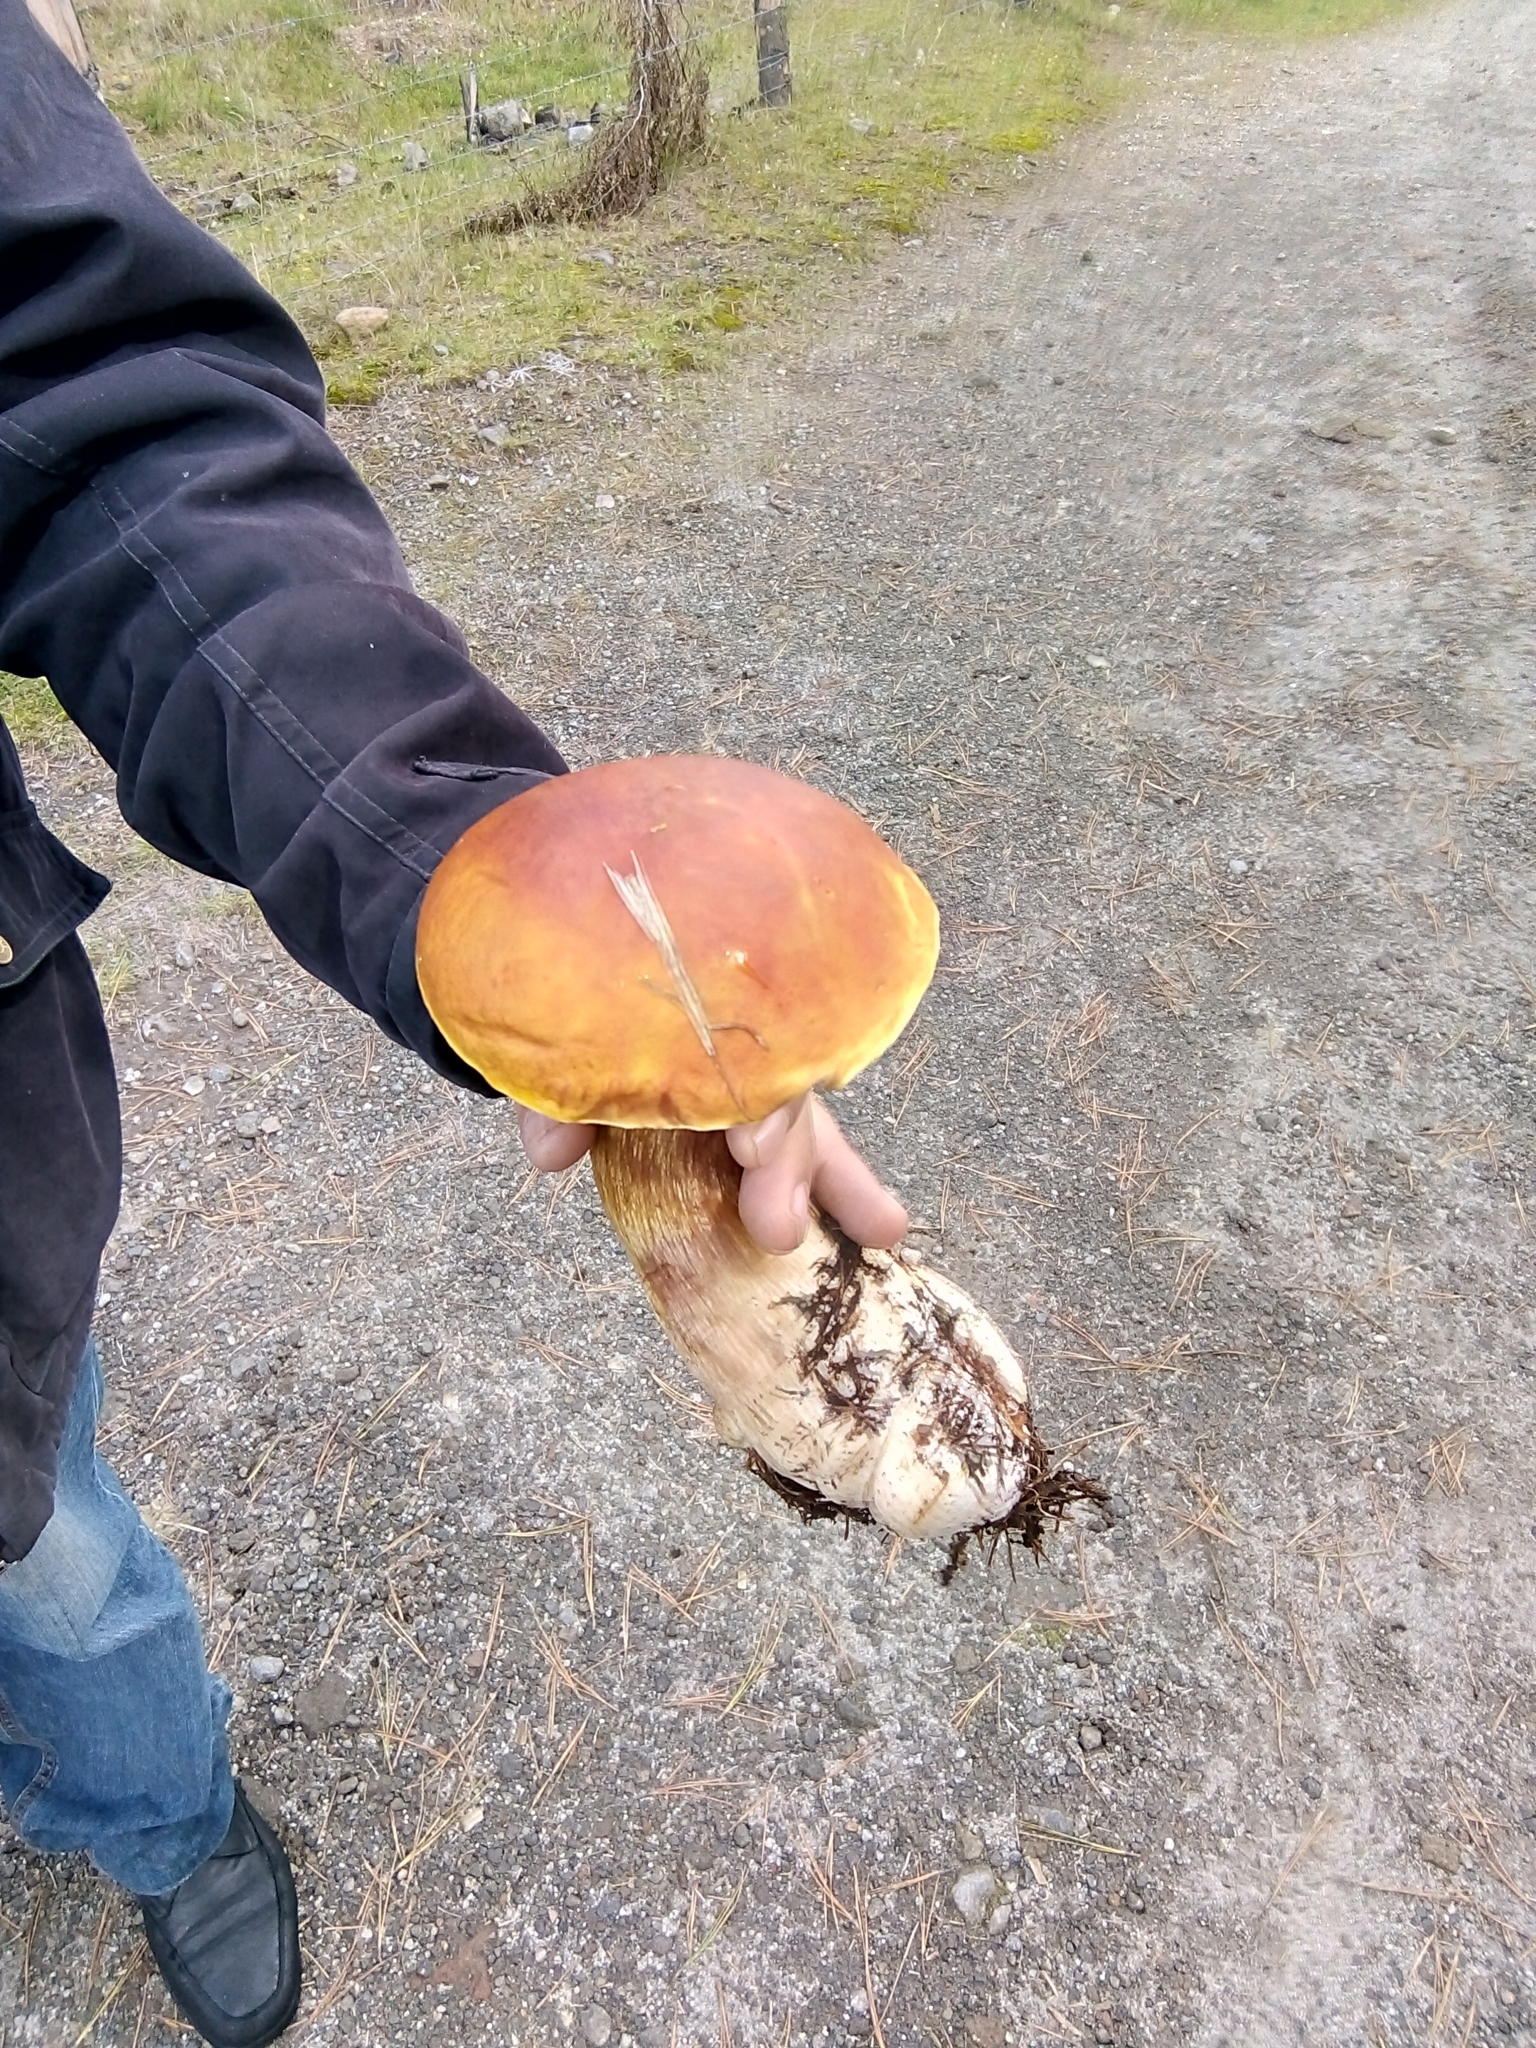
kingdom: Fungi
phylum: Basidiomycota
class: Agaricomycetes
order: Boletales
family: Boletaceae
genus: Boletus
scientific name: Boletus rubriceps
